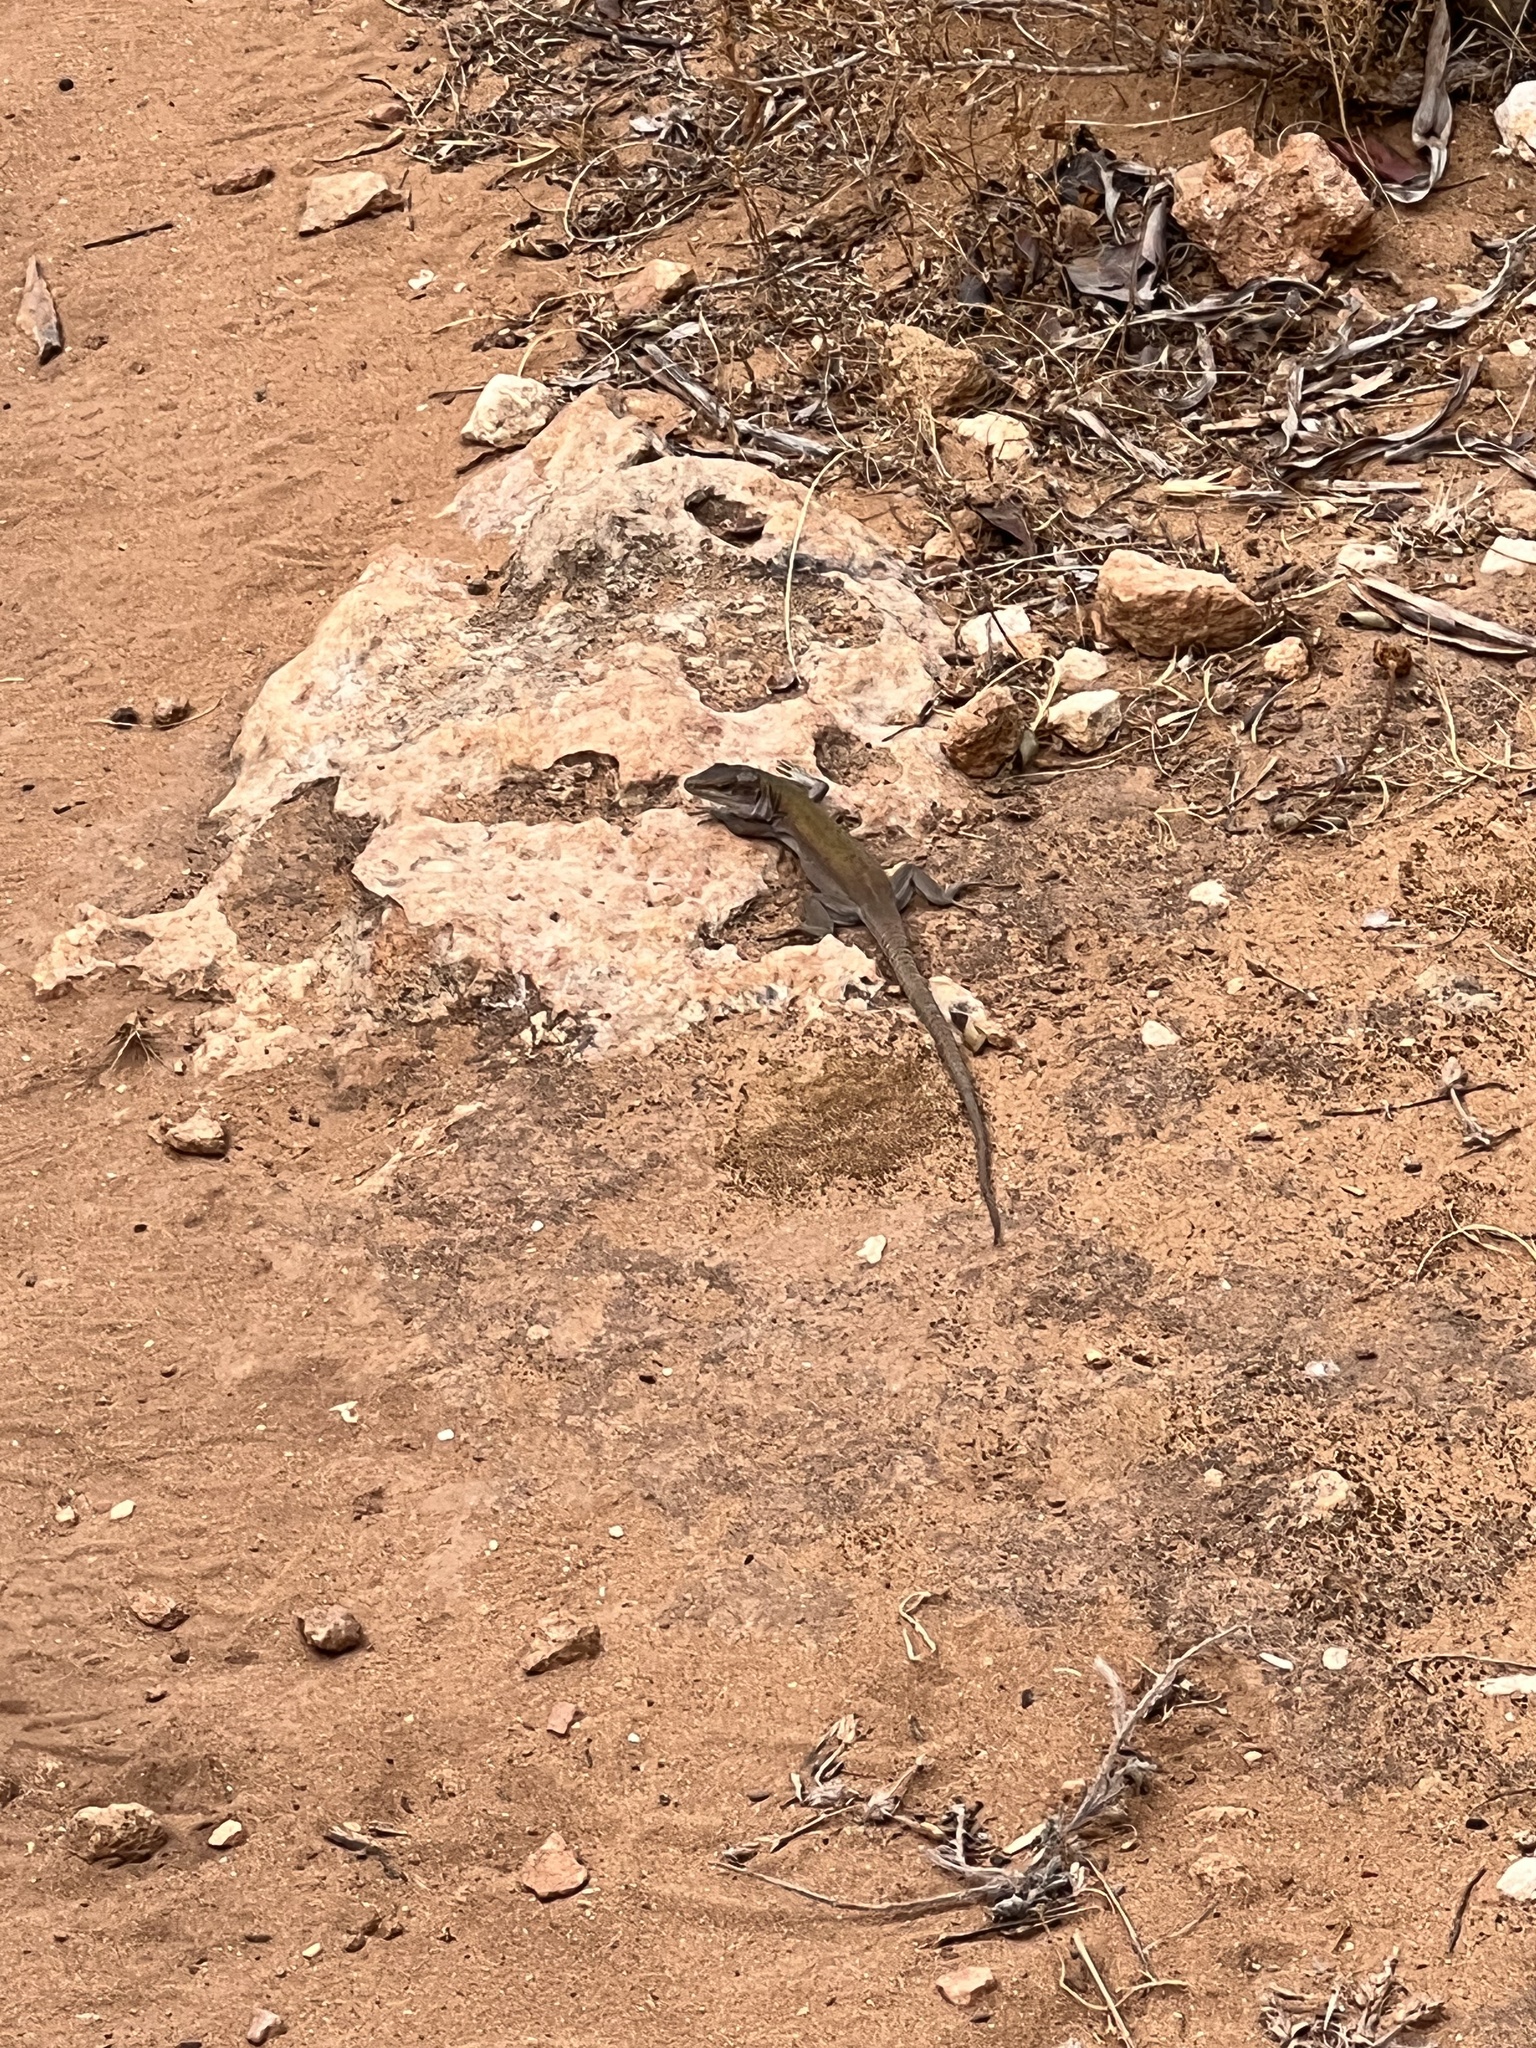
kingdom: Animalia
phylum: Chordata
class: Squamata
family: Lacertidae
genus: Podarcis
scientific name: Podarcis siculus
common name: Italian wall lizard
